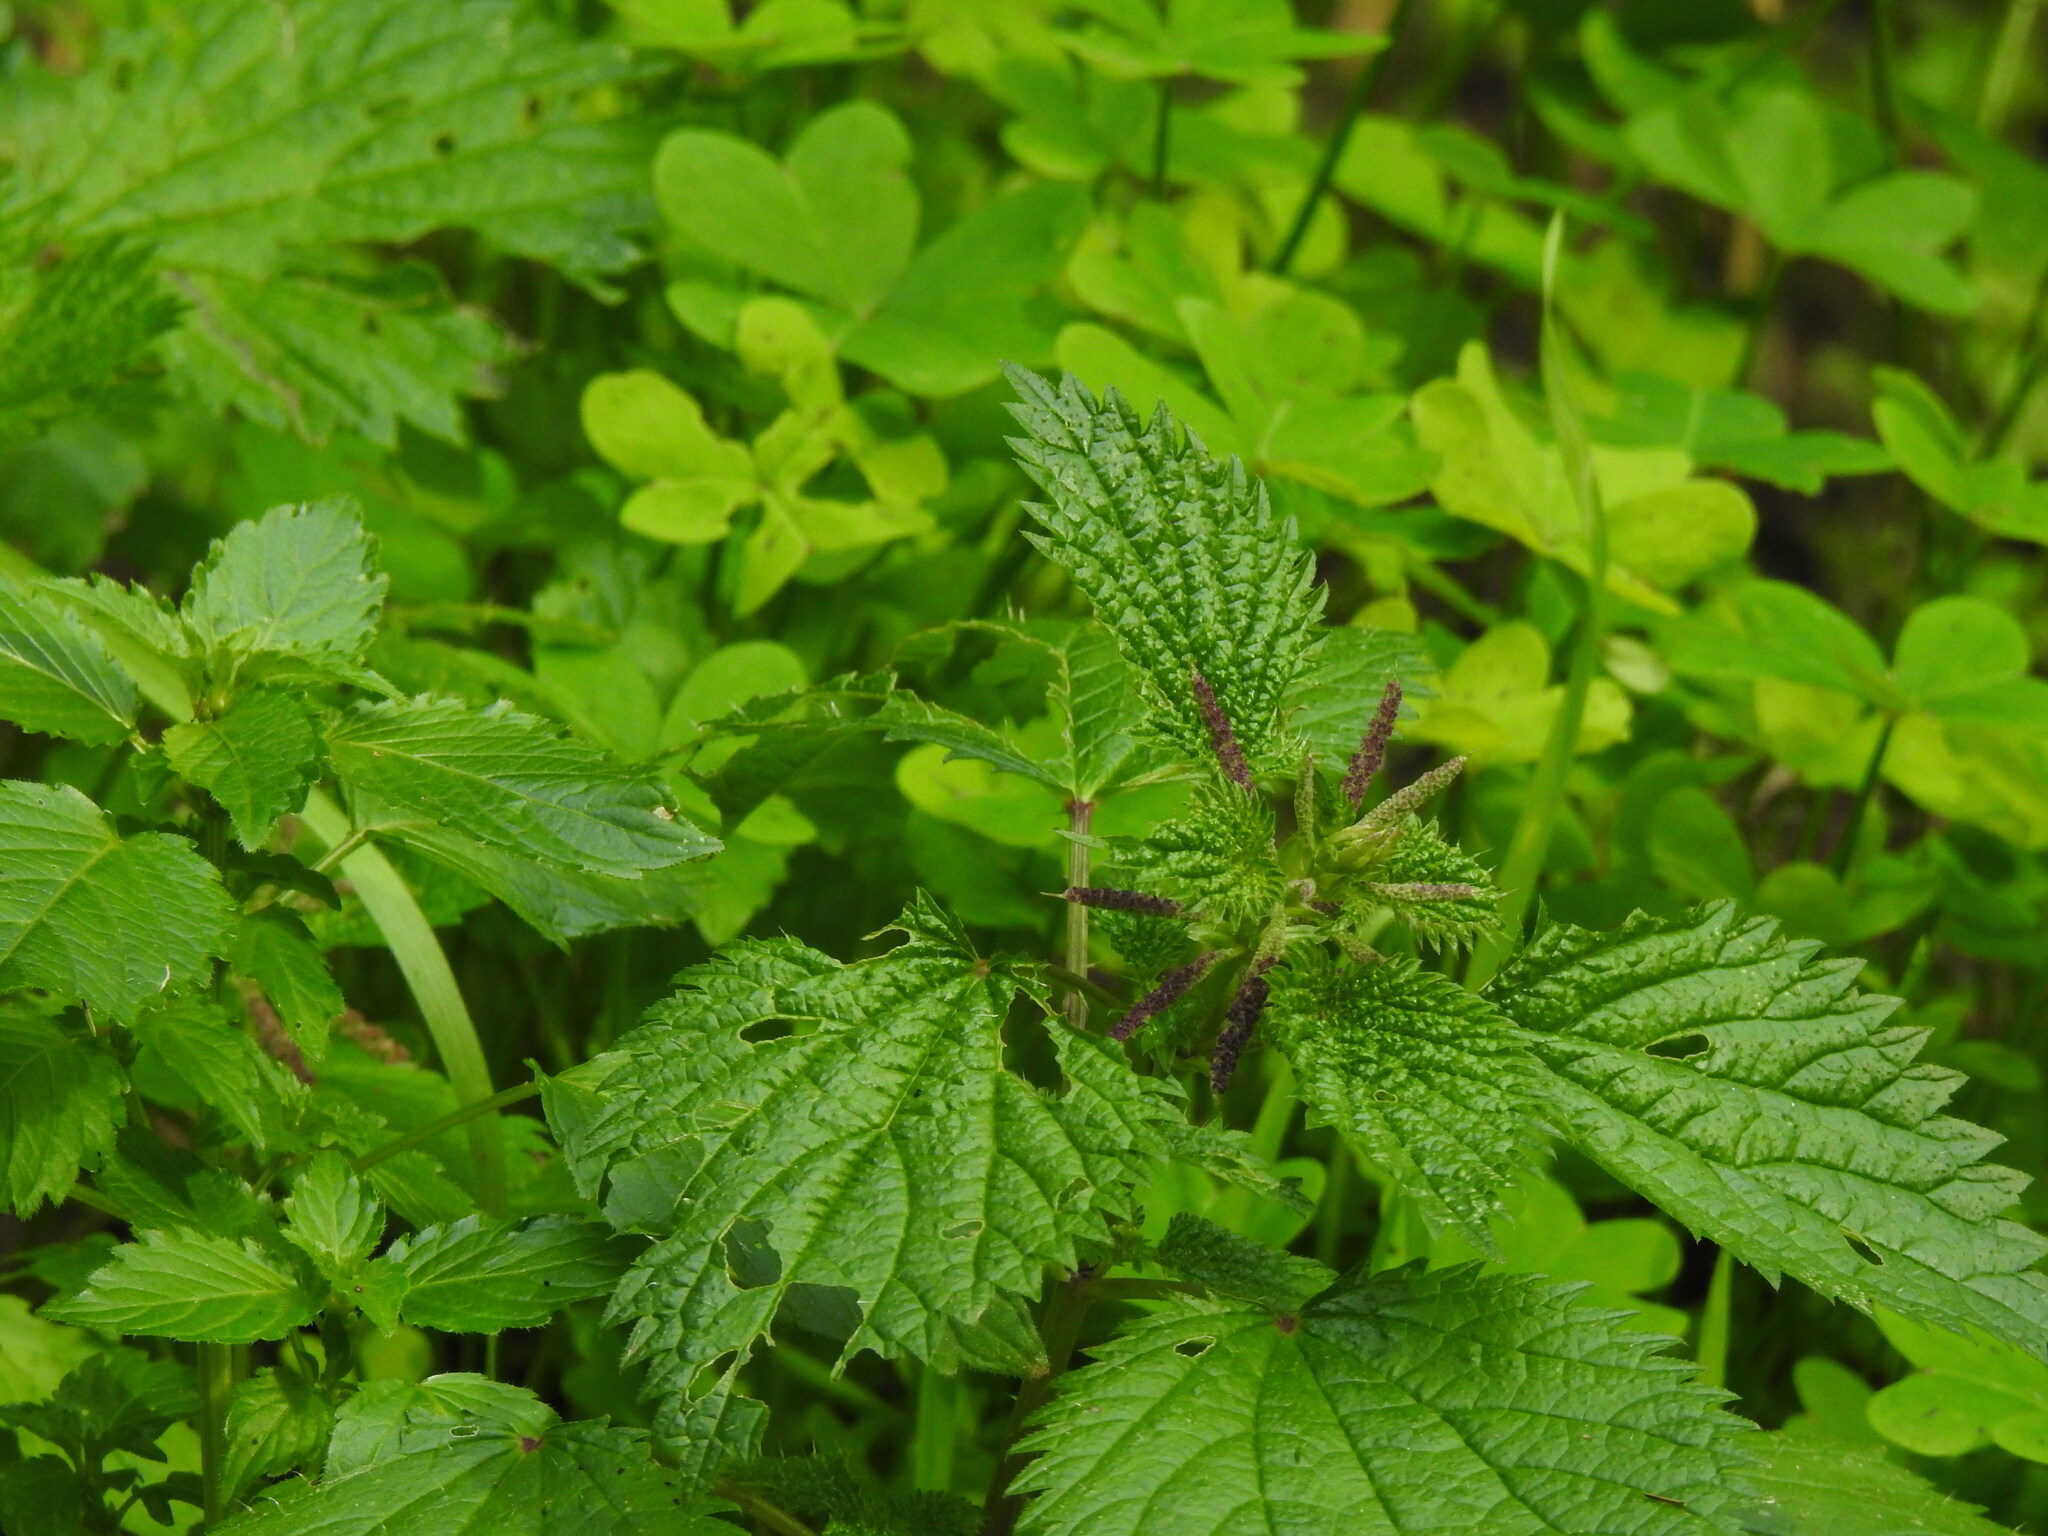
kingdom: Plantae
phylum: Tracheophyta
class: Magnoliopsida
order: Rosales
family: Urticaceae
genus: Urtica
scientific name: Urtica membranacea
